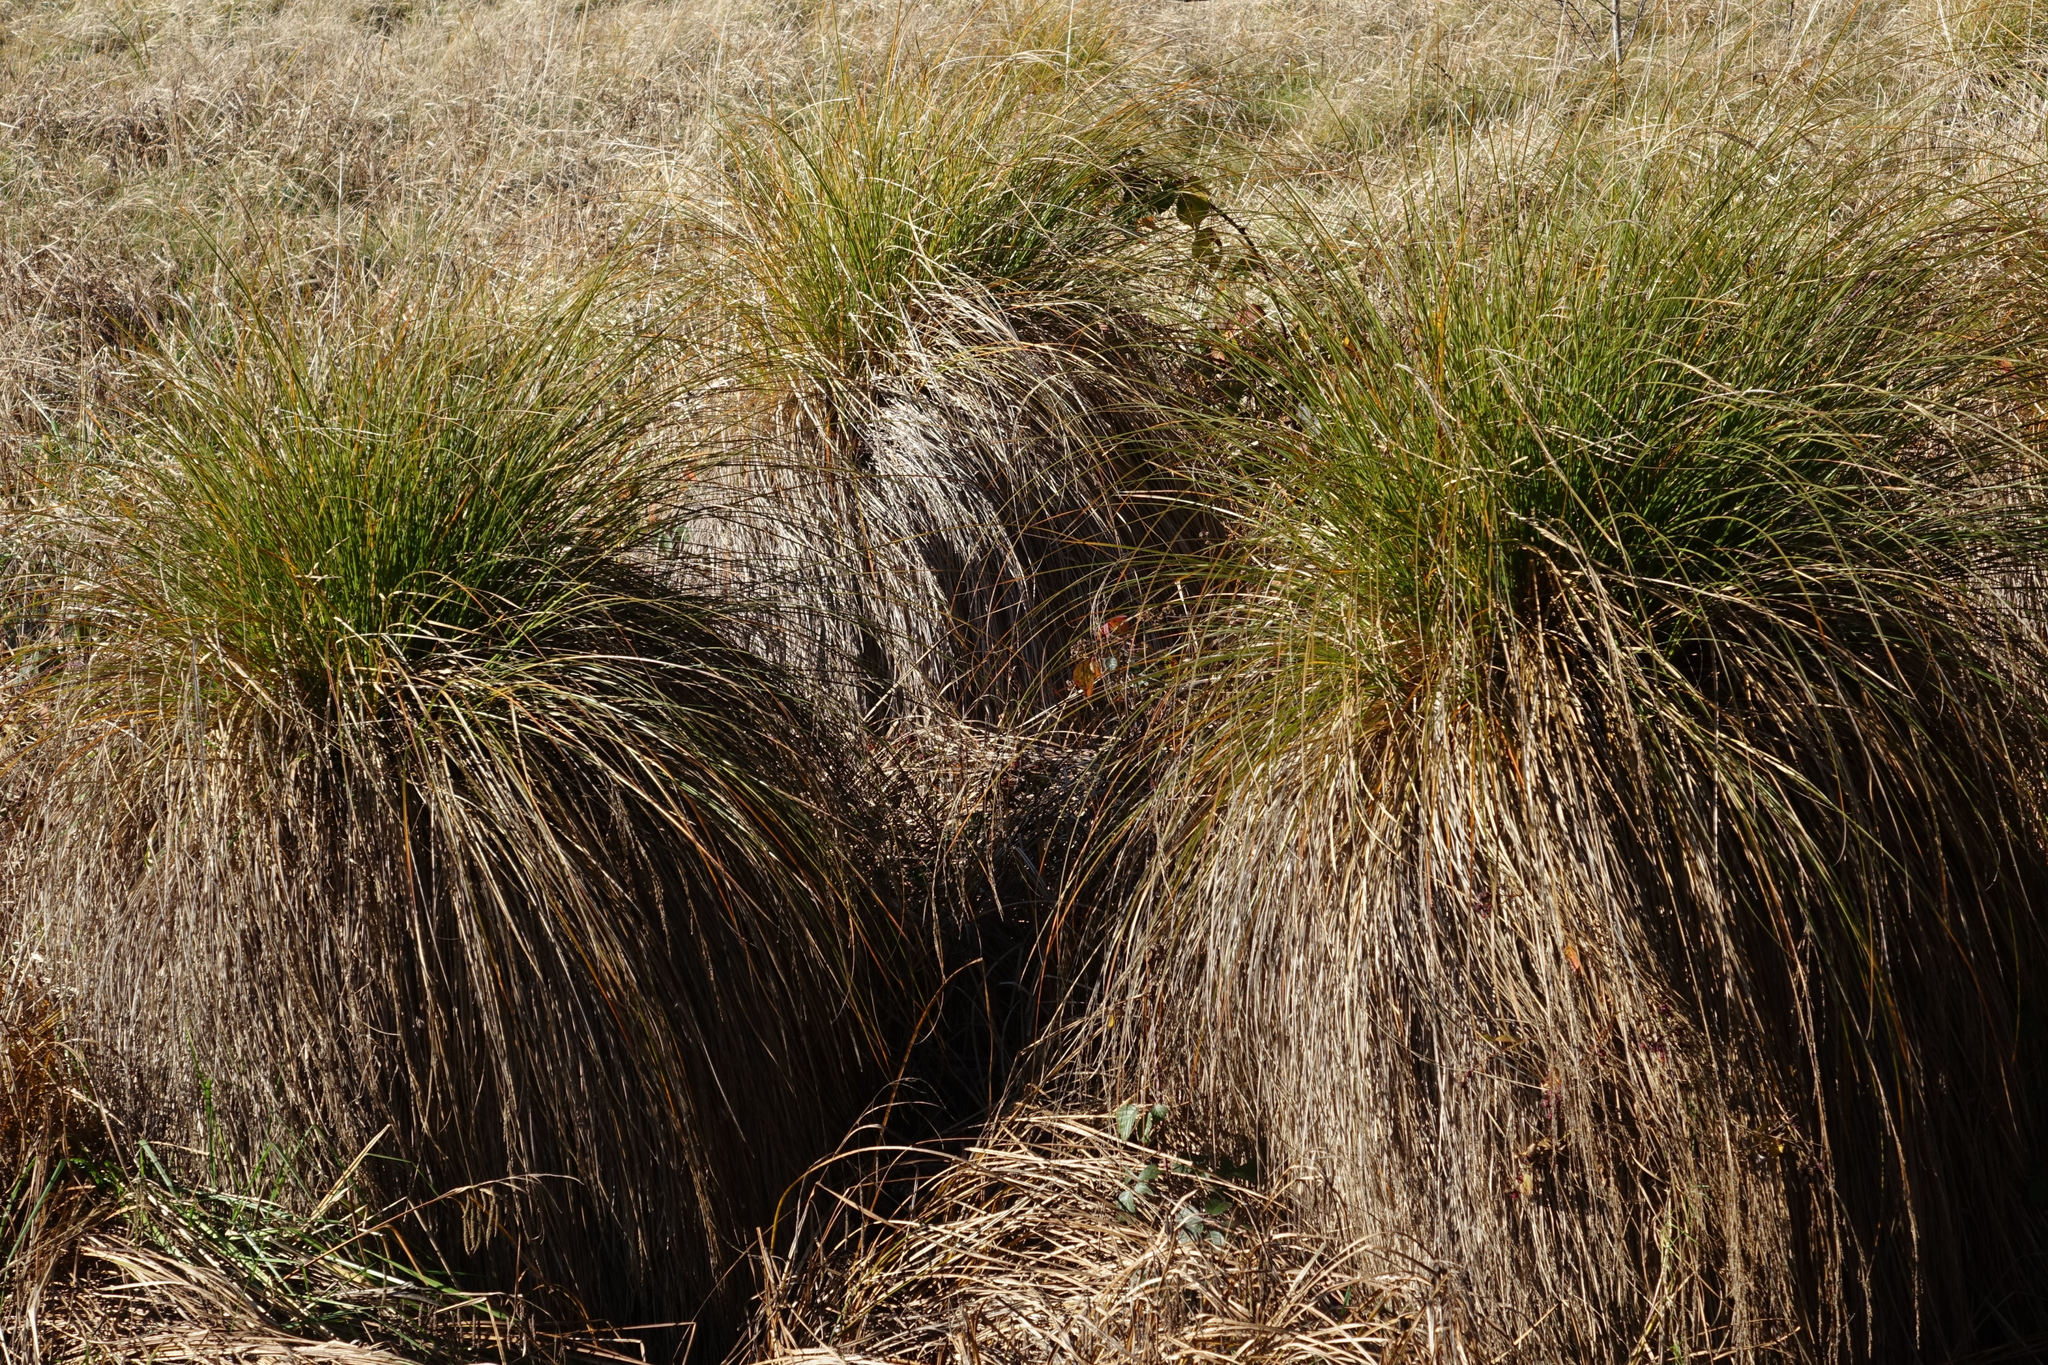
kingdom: Plantae
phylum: Tracheophyta
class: Liliopsida
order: Poales
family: Cyperaceae
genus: Carex
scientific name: Carex secta
